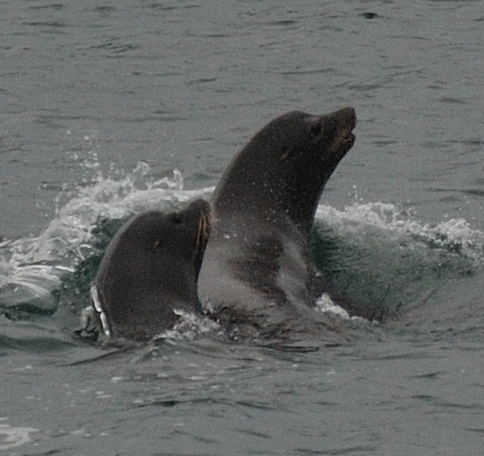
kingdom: Animalia
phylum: Chordata
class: Mammalia
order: Carnivora
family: Otariidae
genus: Zalophus
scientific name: Zalophus californianus
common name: California sea lion
